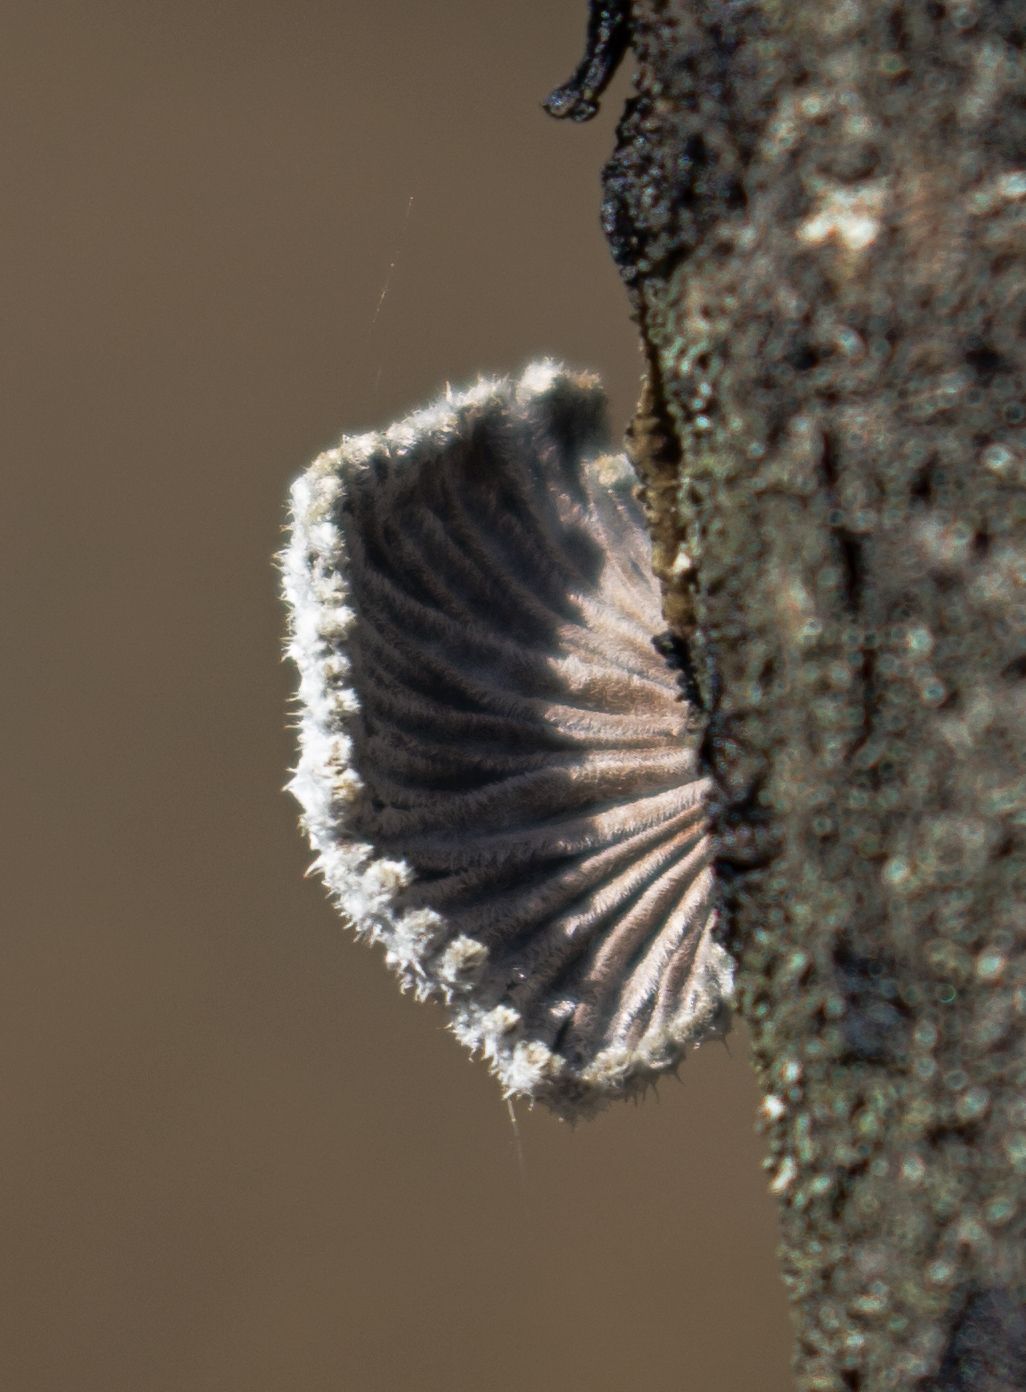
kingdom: Fungi
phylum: Basidiomycota
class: Agaricomycetes
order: Agaricales
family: Schizophyllaceae
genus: Schizophyllum
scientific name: Schizophyllum commune
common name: Common porecrust
